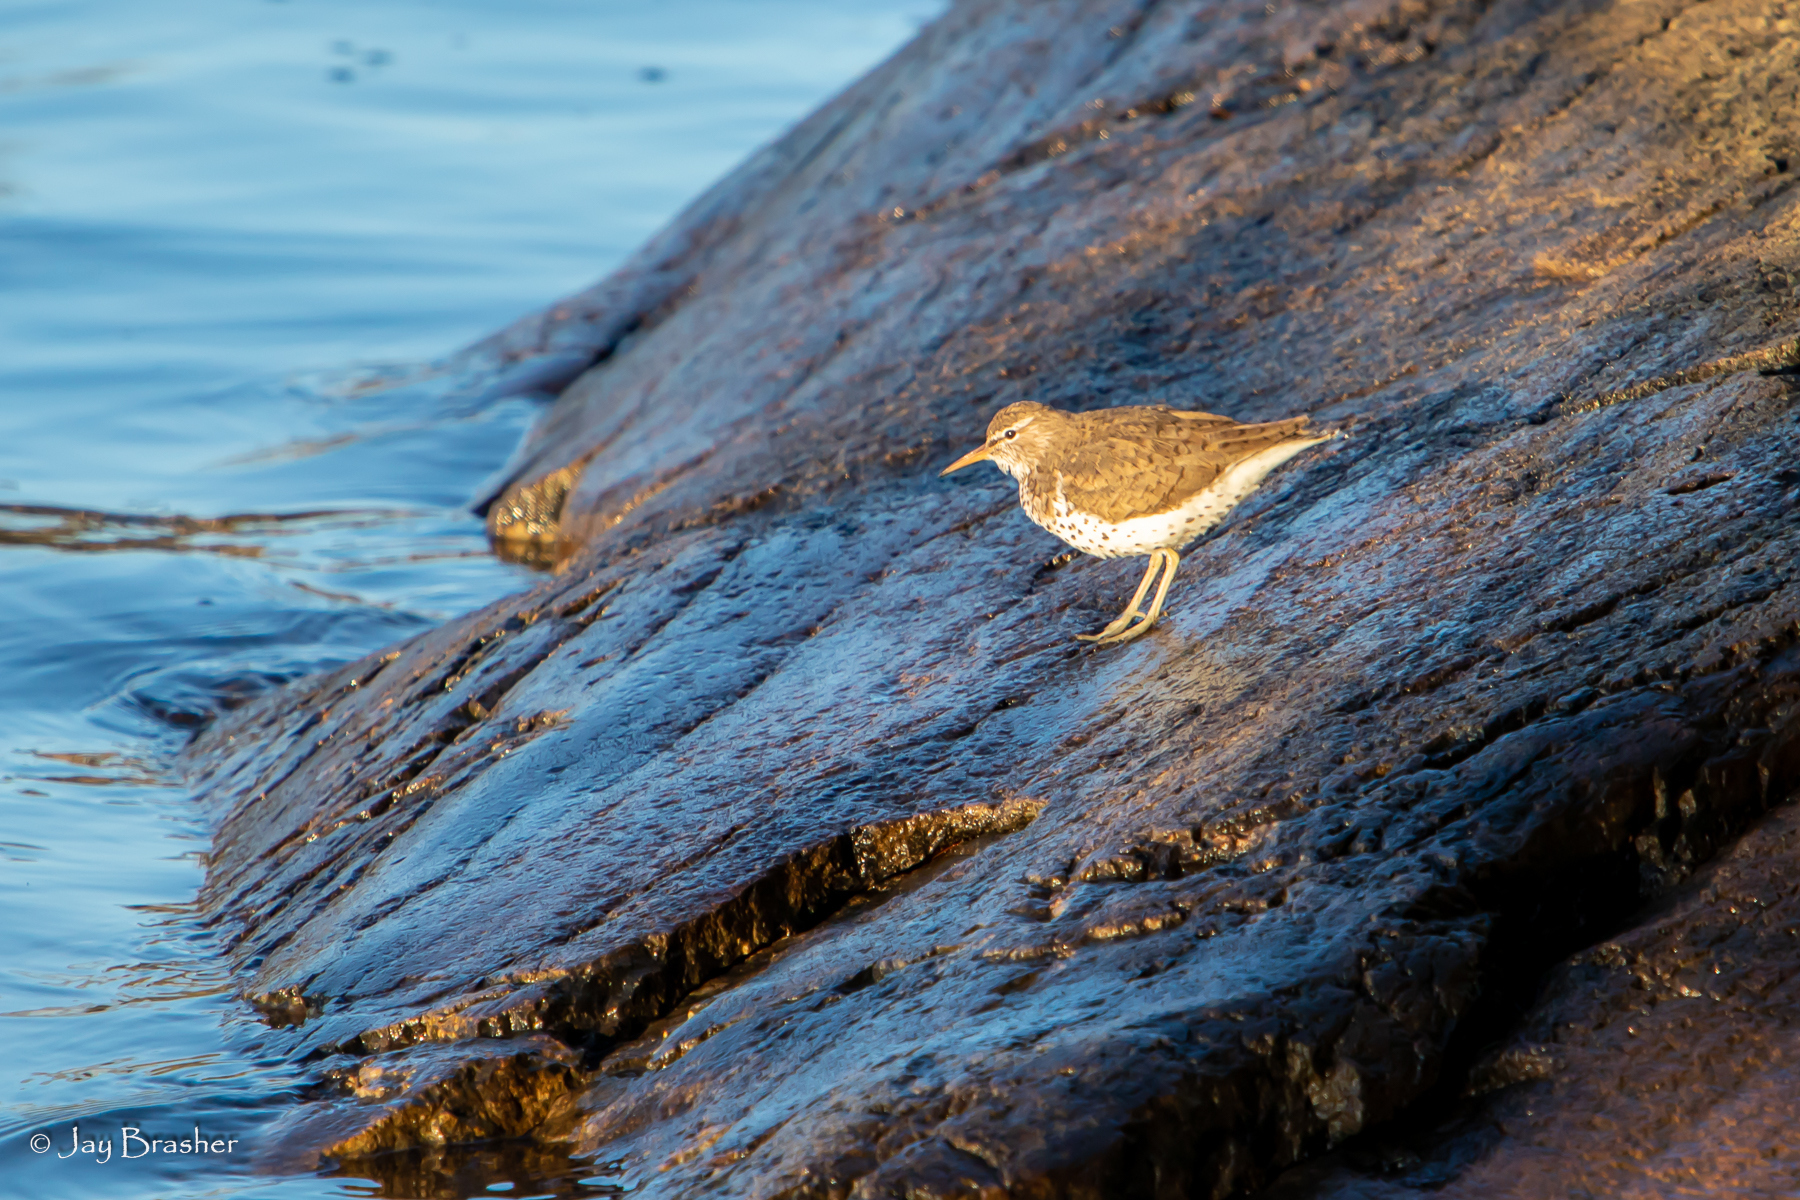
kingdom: Animalia
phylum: Chordata
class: Aves
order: Charadriiformes
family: Scolopacidae
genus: Actitis
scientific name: Actitis macularius
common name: Spotted sandpiper
